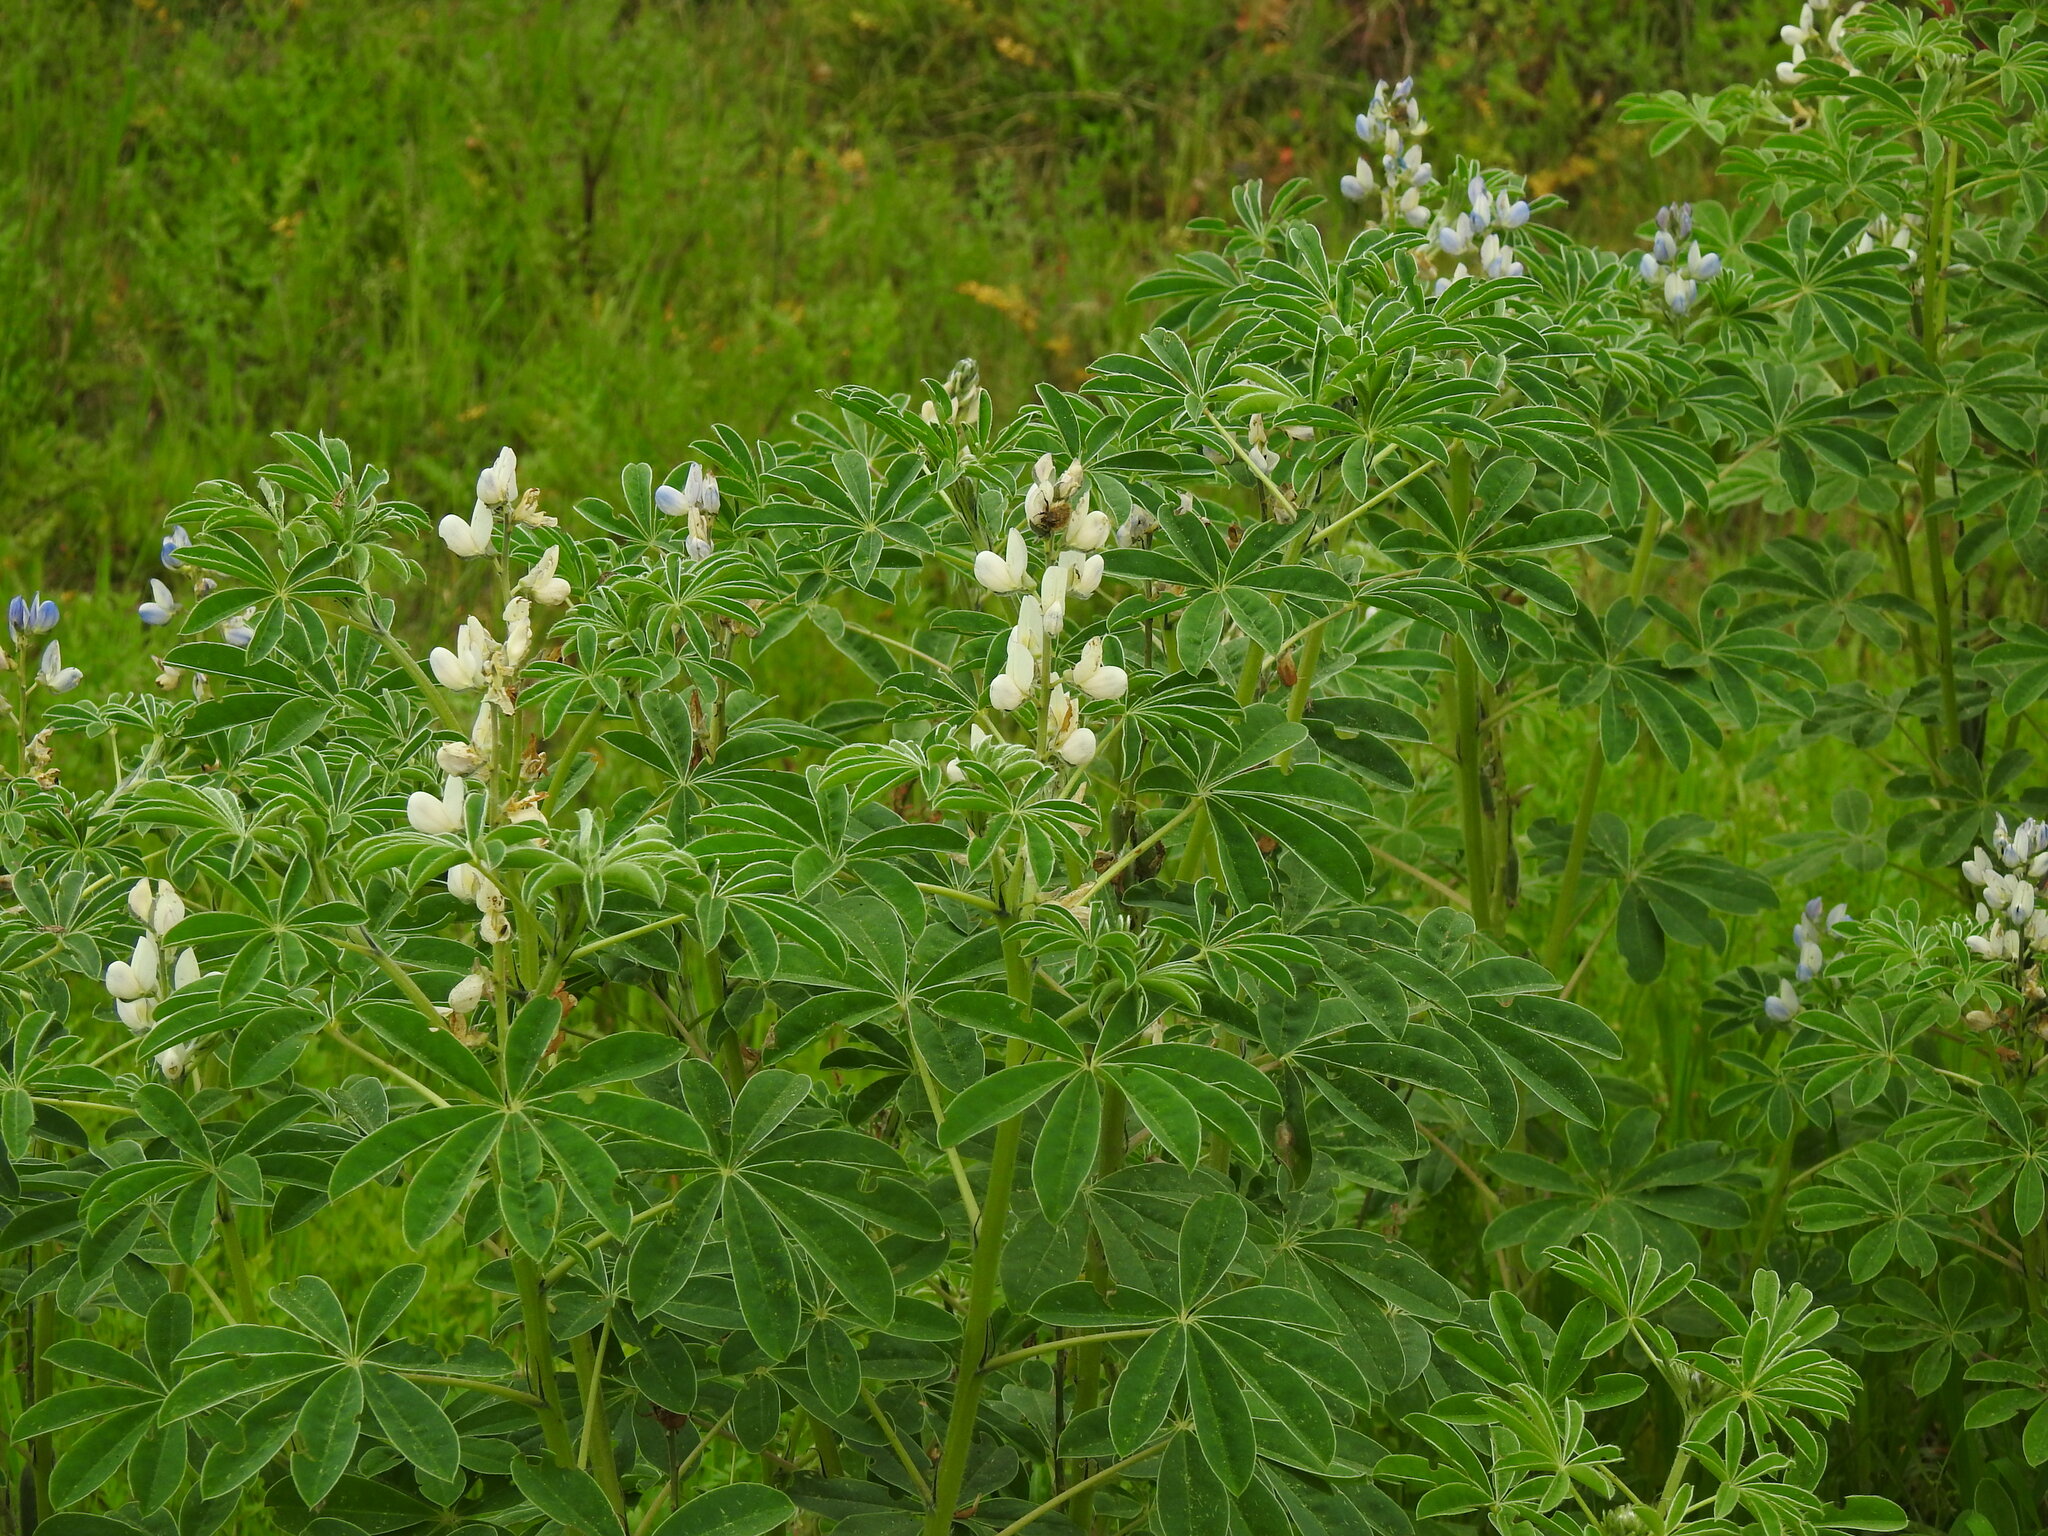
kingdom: Plantae
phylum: Tracheophyta
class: Magnoliopsida
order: Fabales
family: Fabaceae
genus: Lupinus
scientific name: Lupinus albus
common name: White lupin
